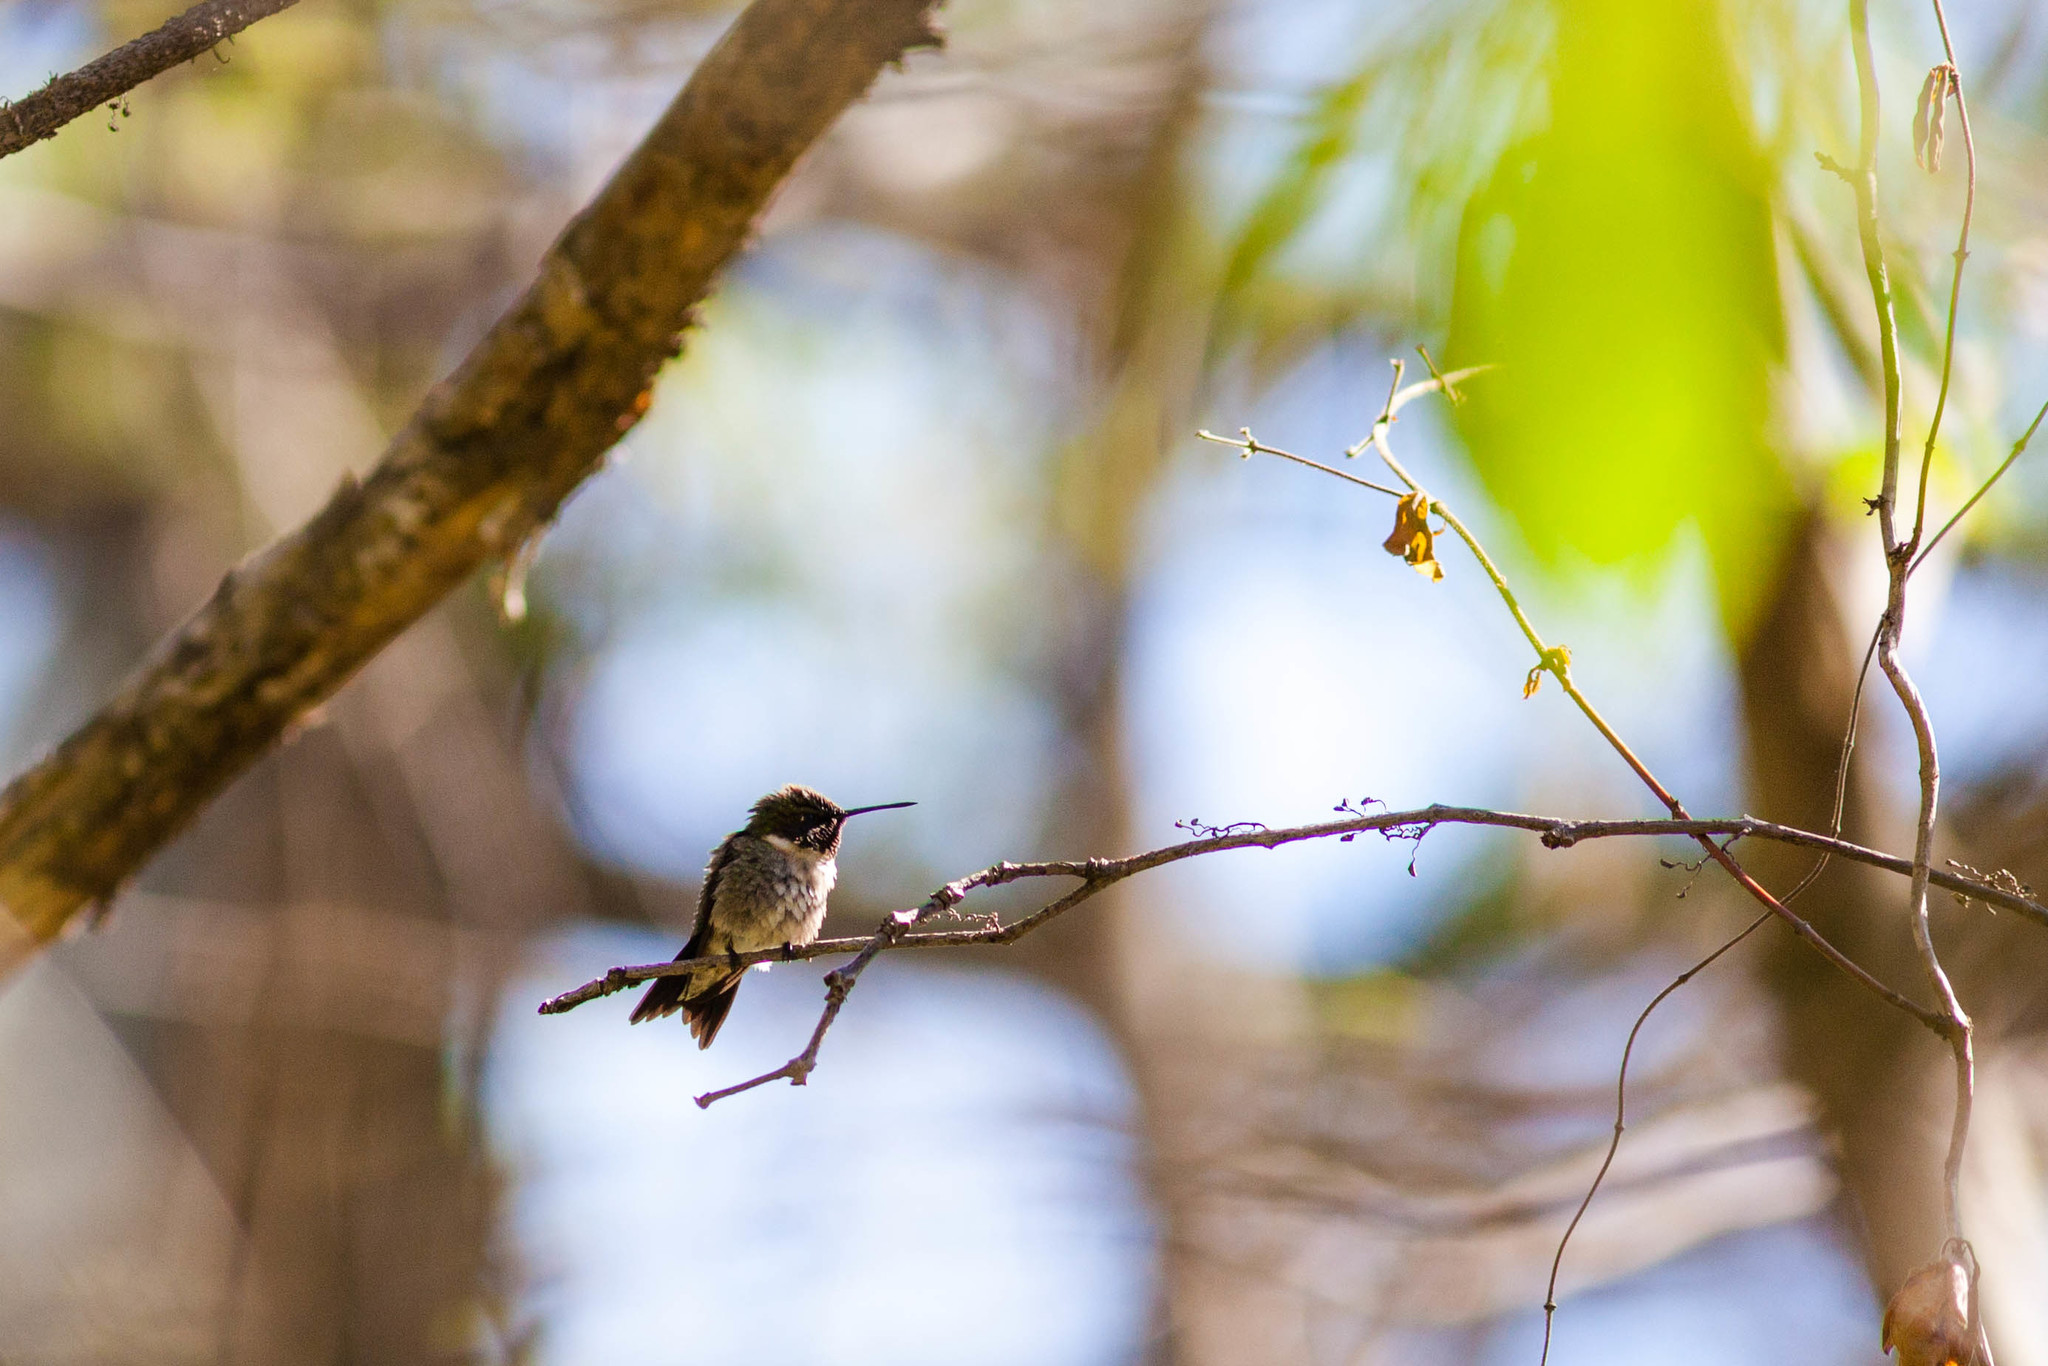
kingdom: Animalia
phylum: Chordata
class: Aves
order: Apodiformes
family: Trochilidae
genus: Archilochus
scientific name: Archilochus colubris
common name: Ruby-throated hummingbird
